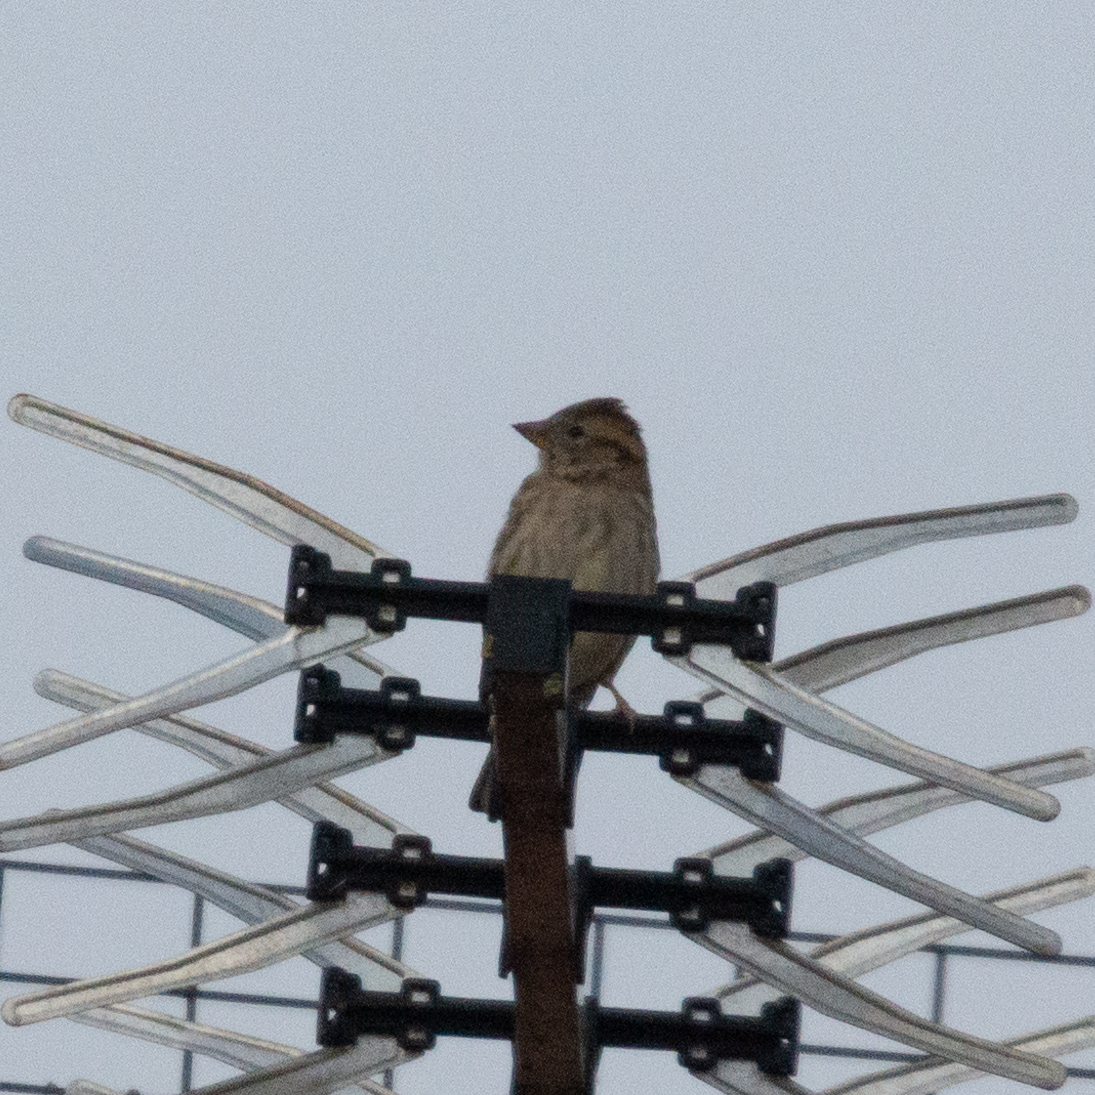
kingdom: Animalia
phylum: Chordata
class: Aves
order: Passeriformes
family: Passeridae
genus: Petronia
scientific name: Petronia petronia
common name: Rock sparrow
